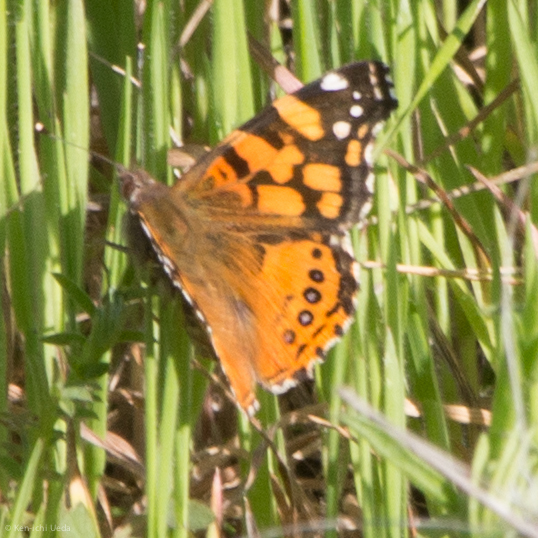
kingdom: Animalia
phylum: Arthropoda
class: Insecta
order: Lepidoptera
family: Nymphalidae
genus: Vanessa
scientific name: Vanessa annabella
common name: West coast lady
